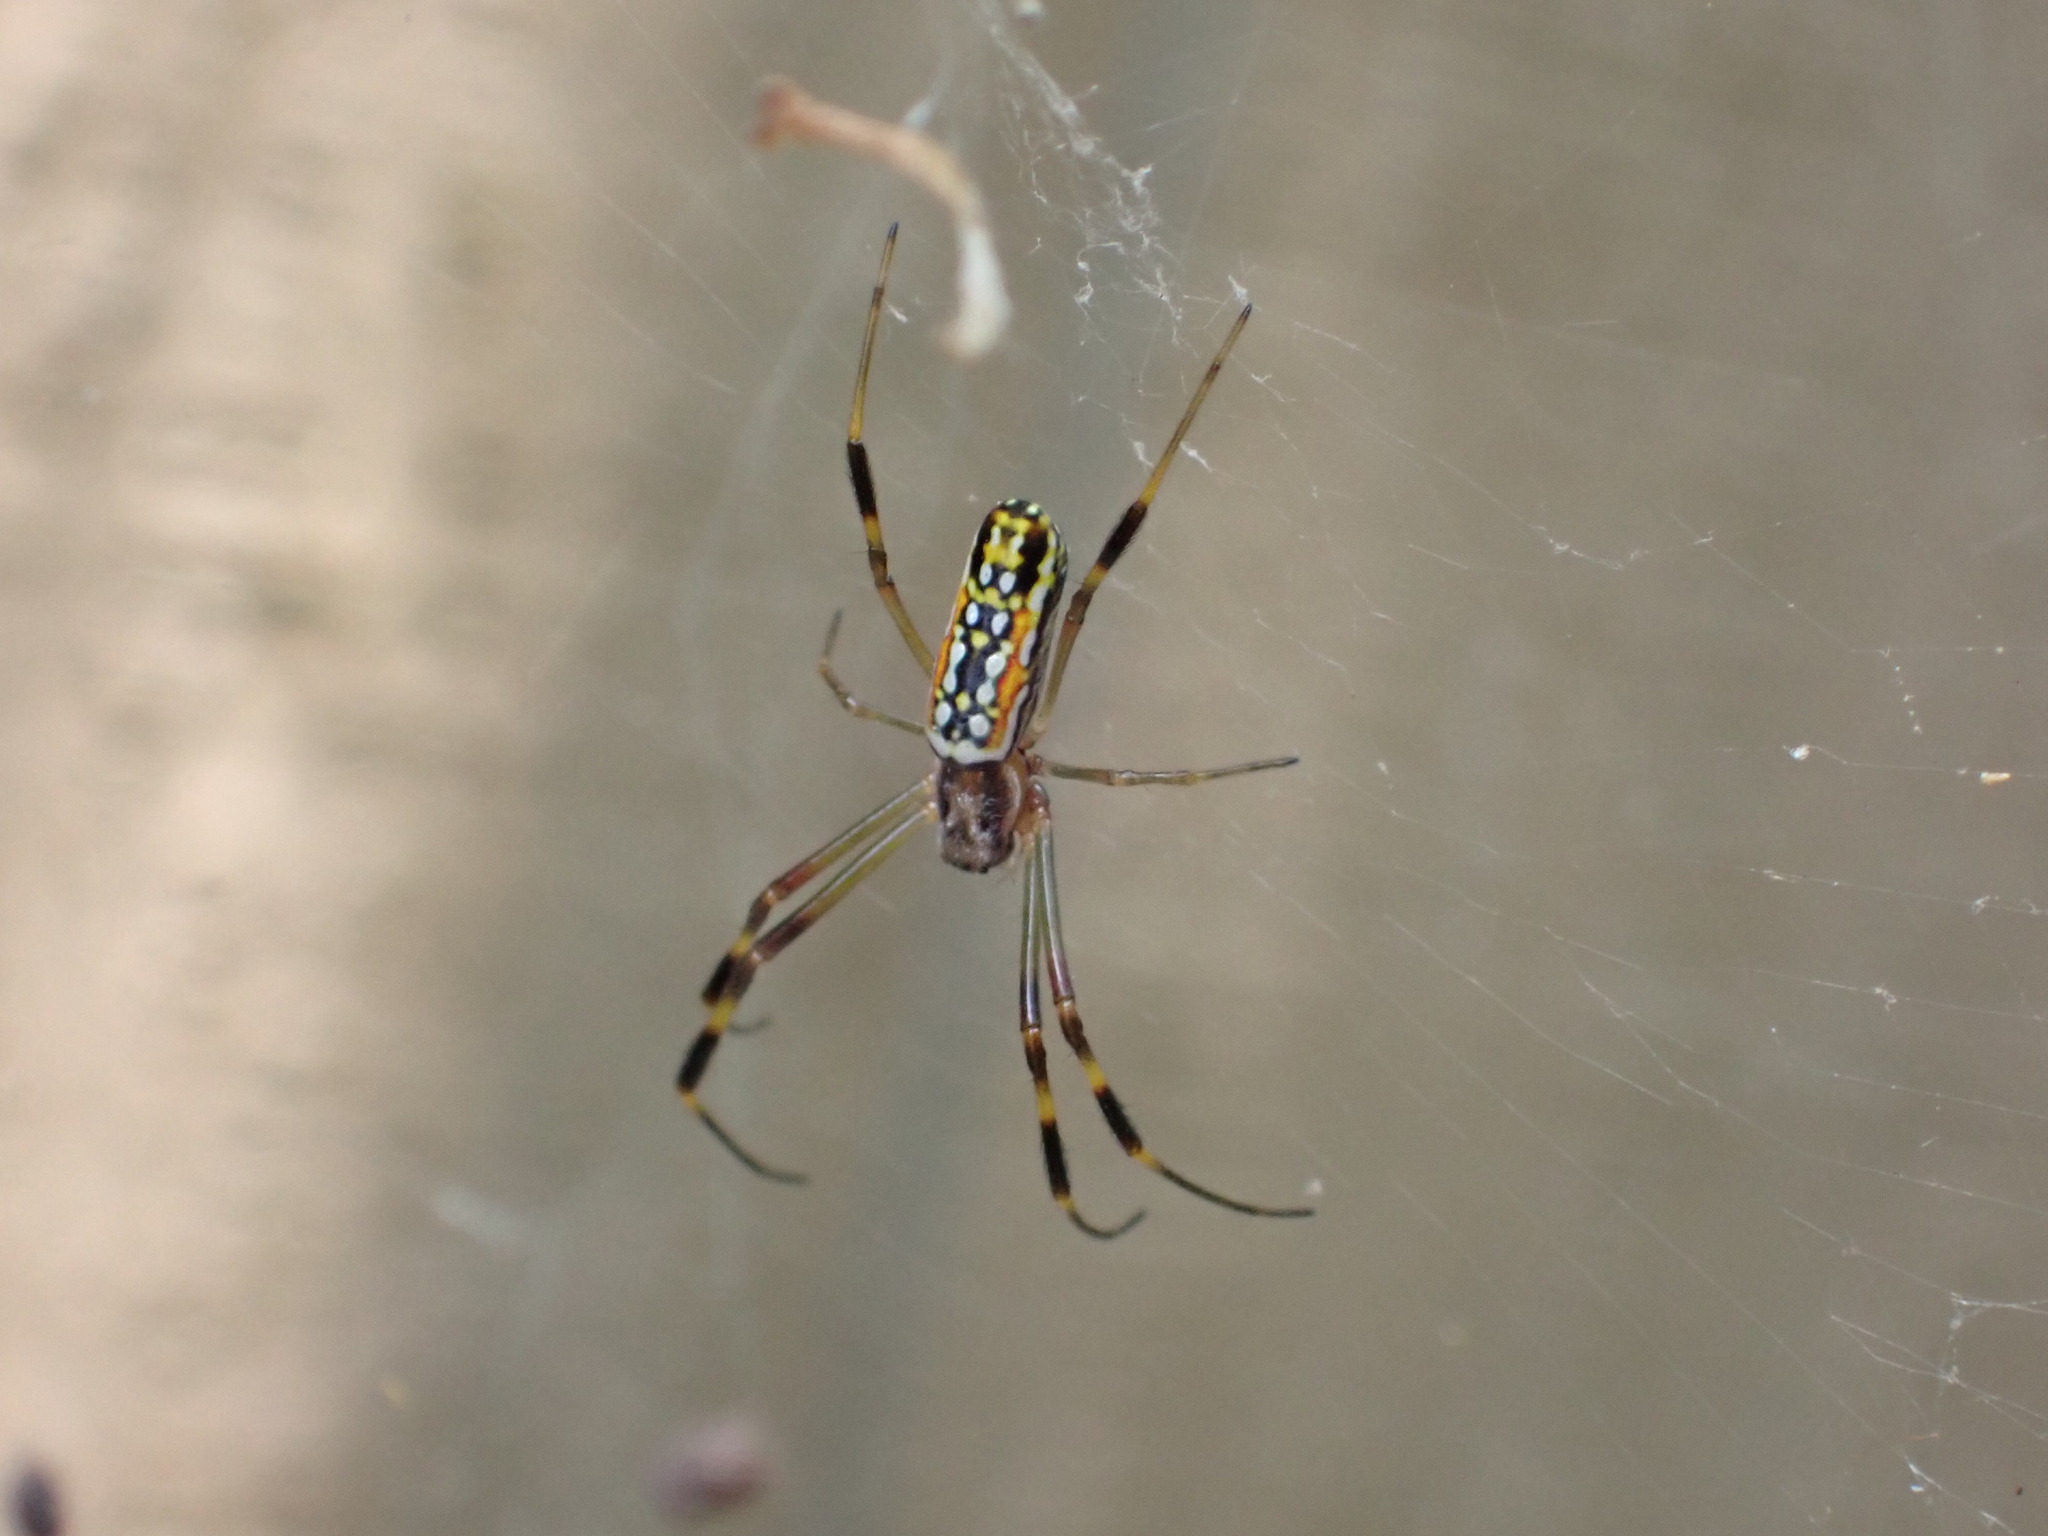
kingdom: Animalia
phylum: Arthropoda
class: Arachnida
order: Araneae
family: Araneidae
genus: Trichonephila
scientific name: Trichonephila clavipes
